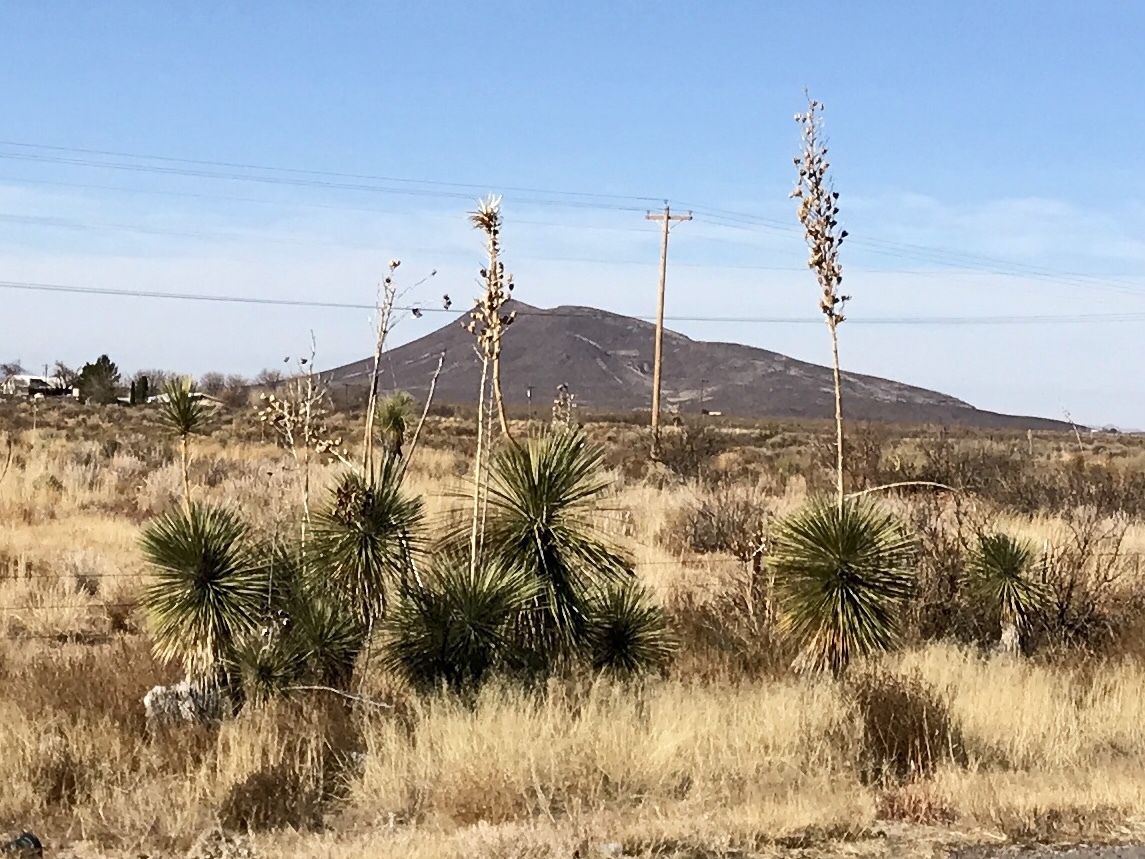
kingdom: Plantae
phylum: Tracheophyta
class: Liliopsida
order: Asparagales
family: Asparagaceae
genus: Yucca
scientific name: Yucca elata
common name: Palmella
